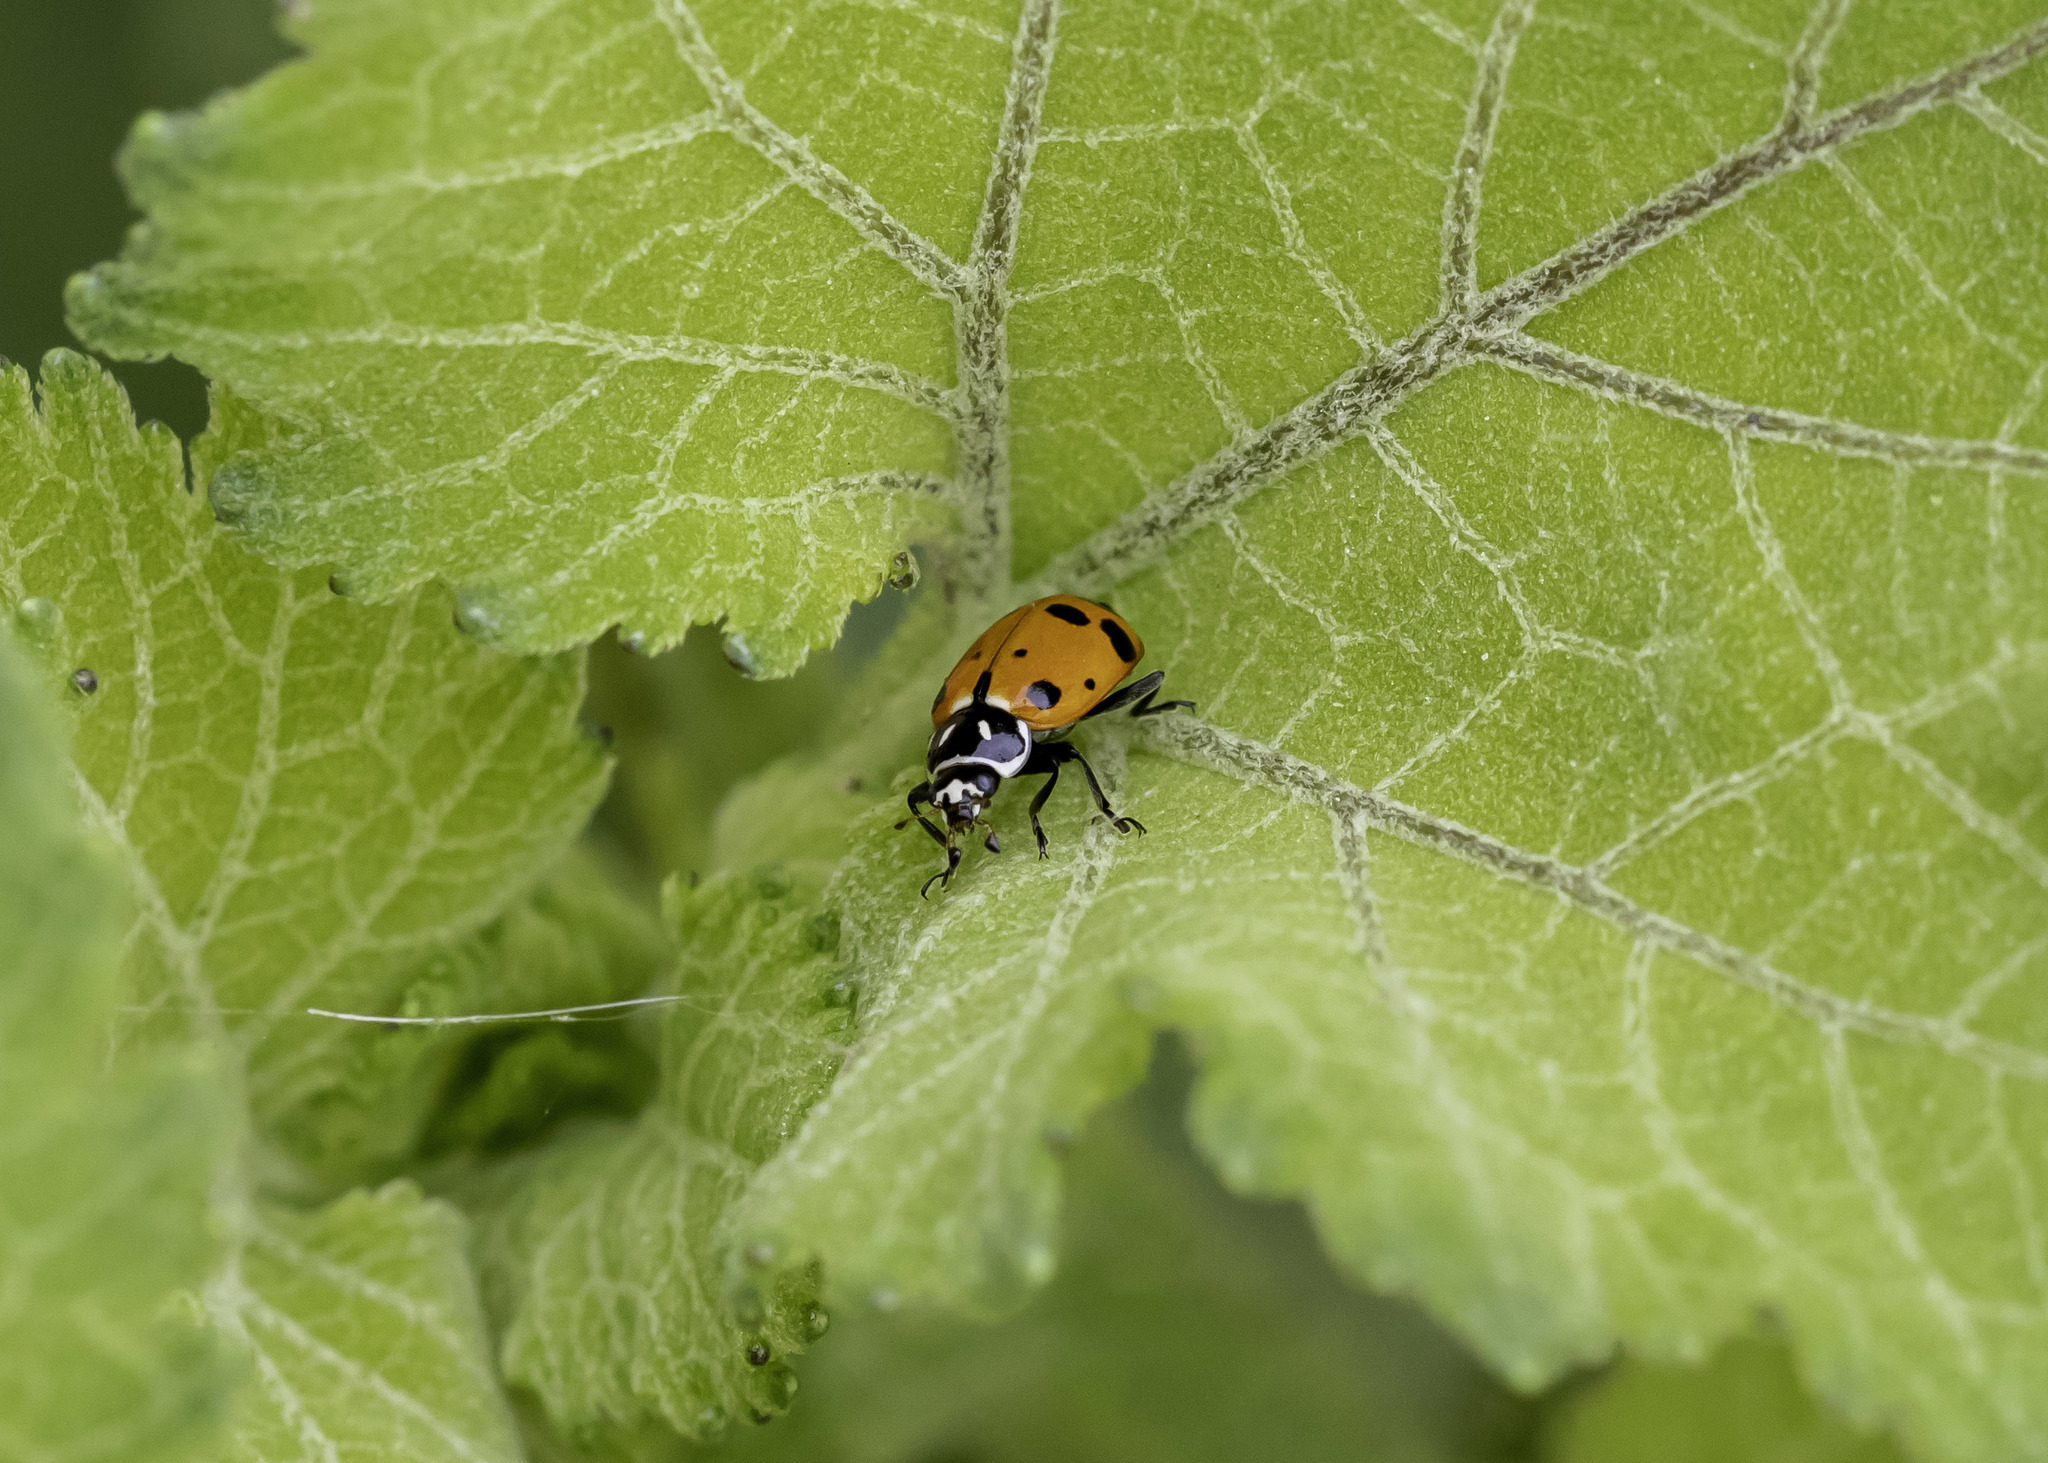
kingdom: Animalia
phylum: Arthropoda
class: Insecta
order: Coleoptera
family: Coccinellidae
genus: Hippodamia
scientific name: Hippodamia convergens
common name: Convergent lady beetle
